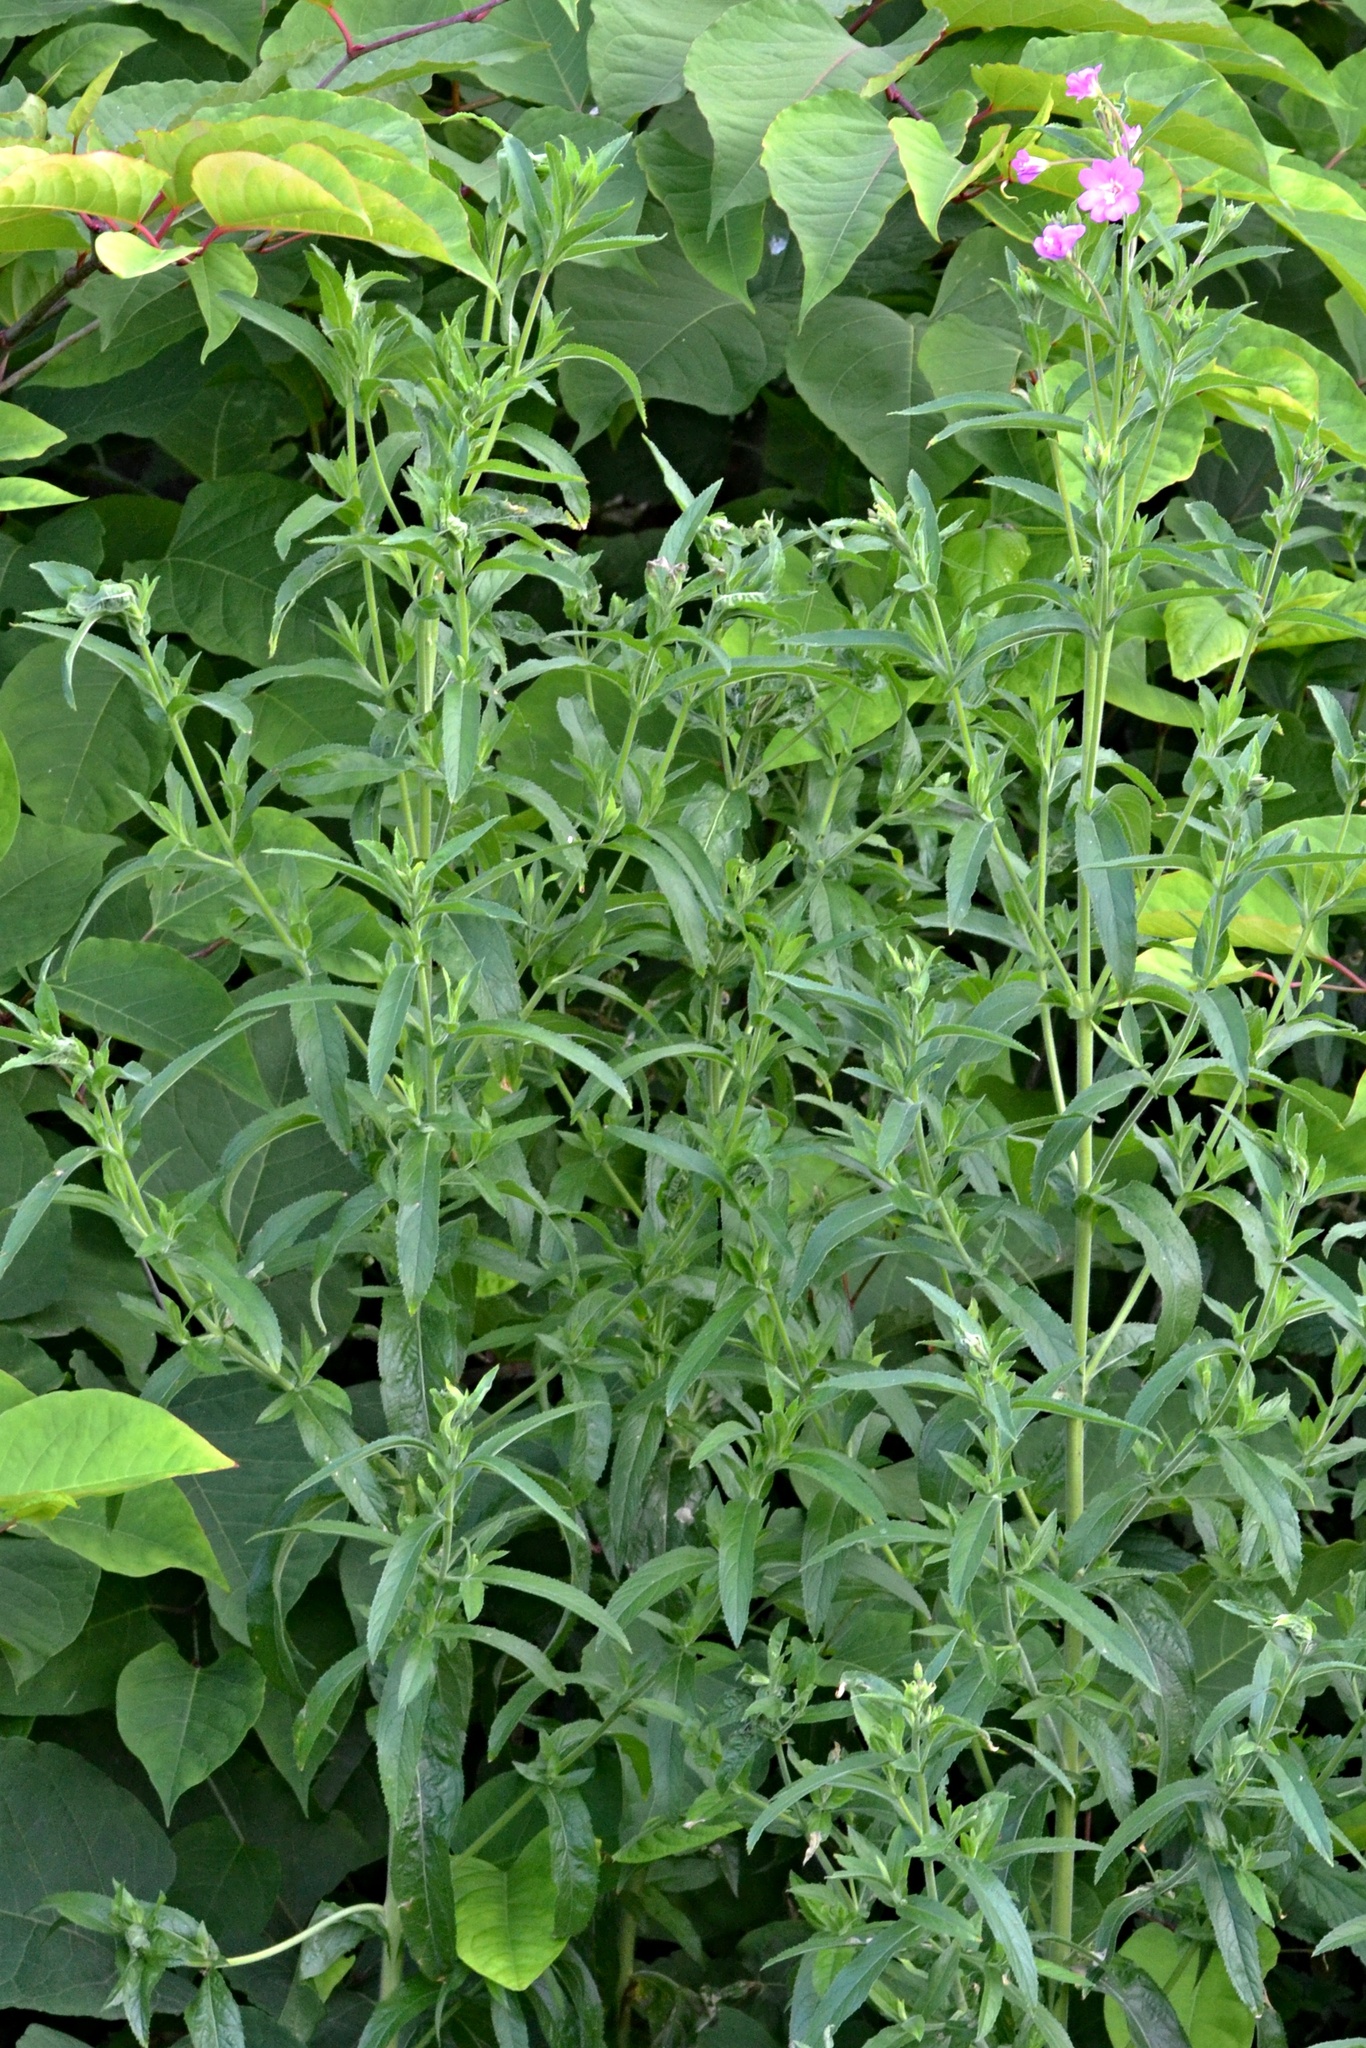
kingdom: Plantae
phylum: Tracheophyta
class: Magnoliopsida
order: Myrtales
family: Onagraceae
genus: Epilobium
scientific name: Epilobium hirsutum
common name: Great willowherb
